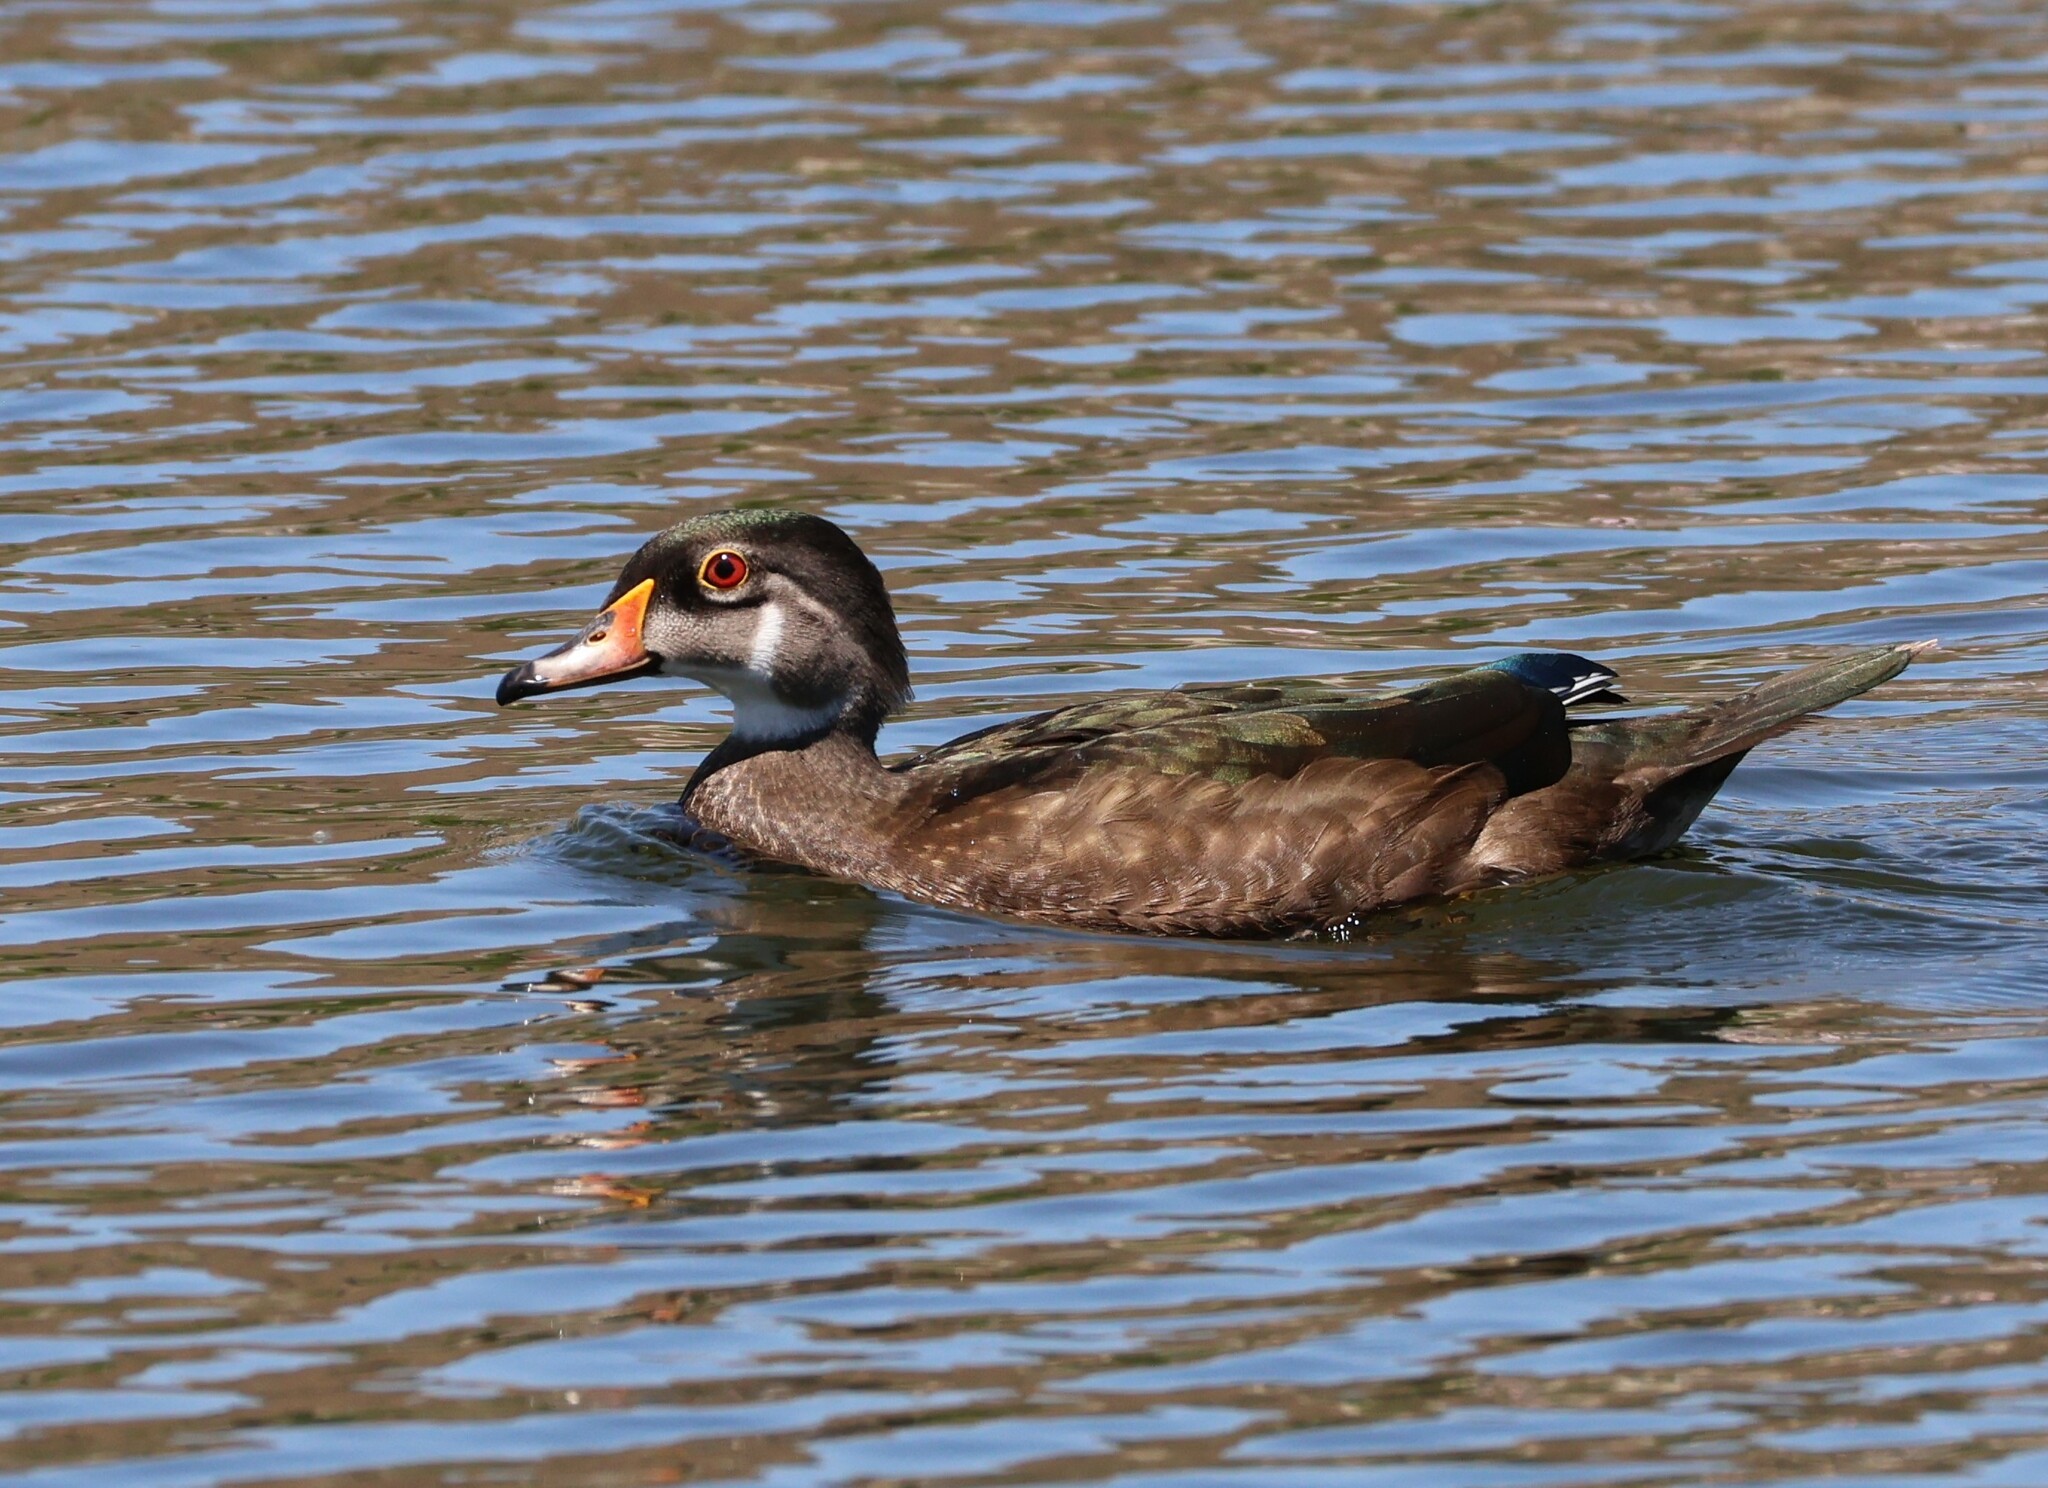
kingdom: Animalia
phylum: Chordata
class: Aves
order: Anseriformes
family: Anatidae
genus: Aix
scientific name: Aix sponsa
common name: Wood duck
